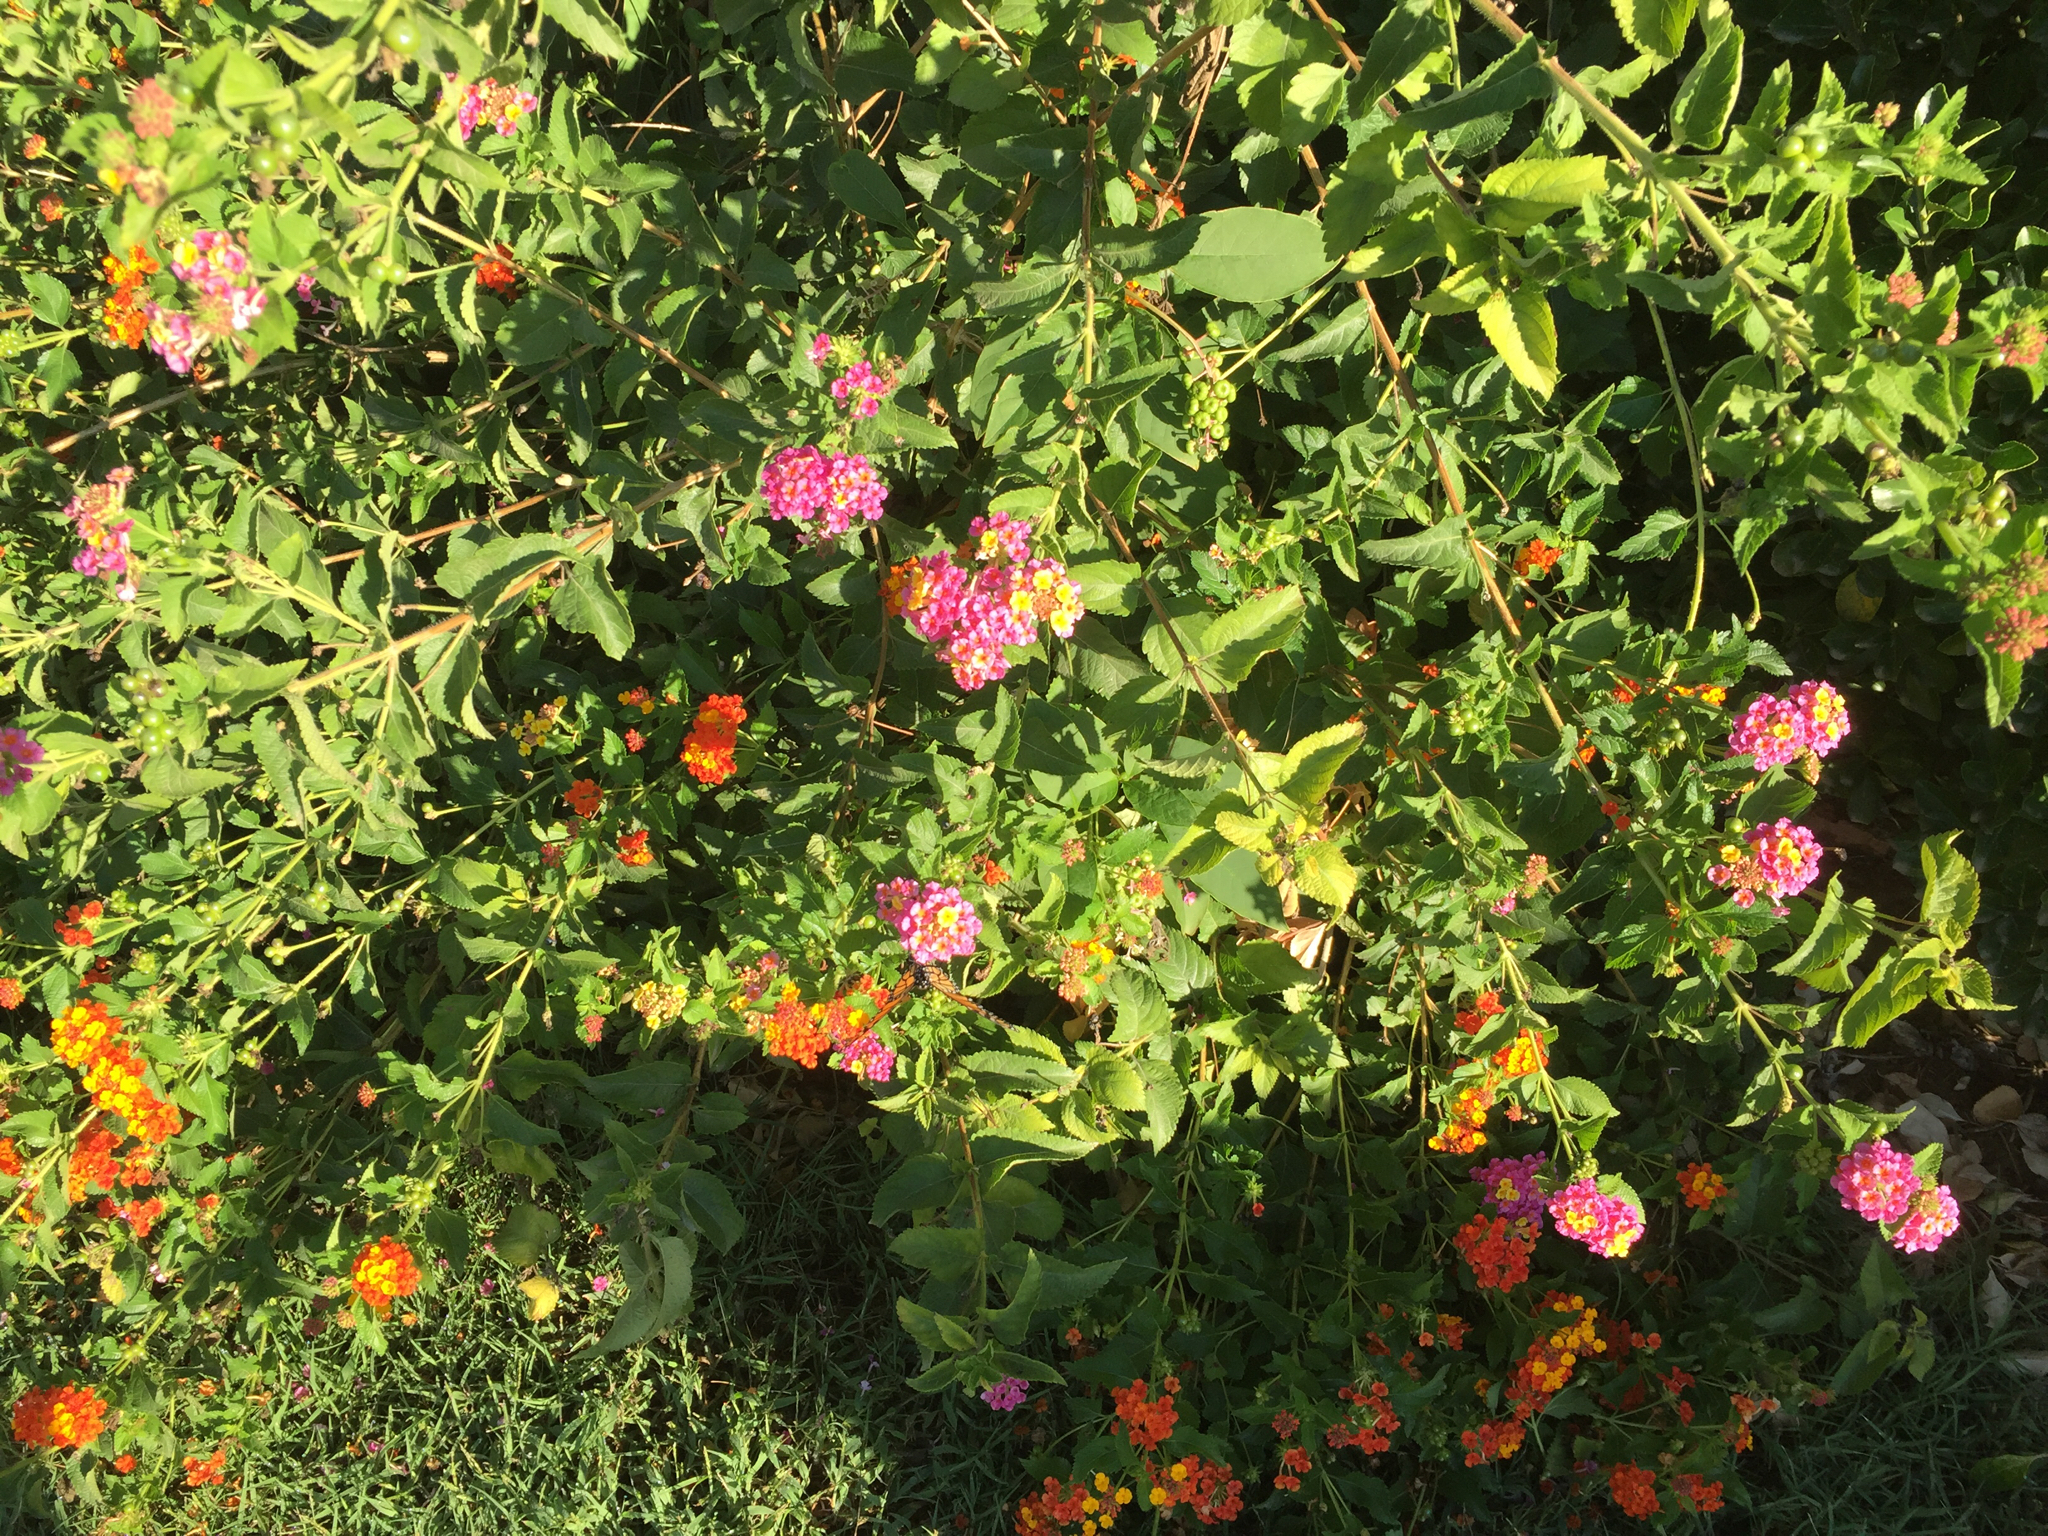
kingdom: Animalia
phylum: Arthropoda
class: Insecta
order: Lepidoptera
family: Nymphalidae
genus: Danaus
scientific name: Danaus plexippus
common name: Monarch
